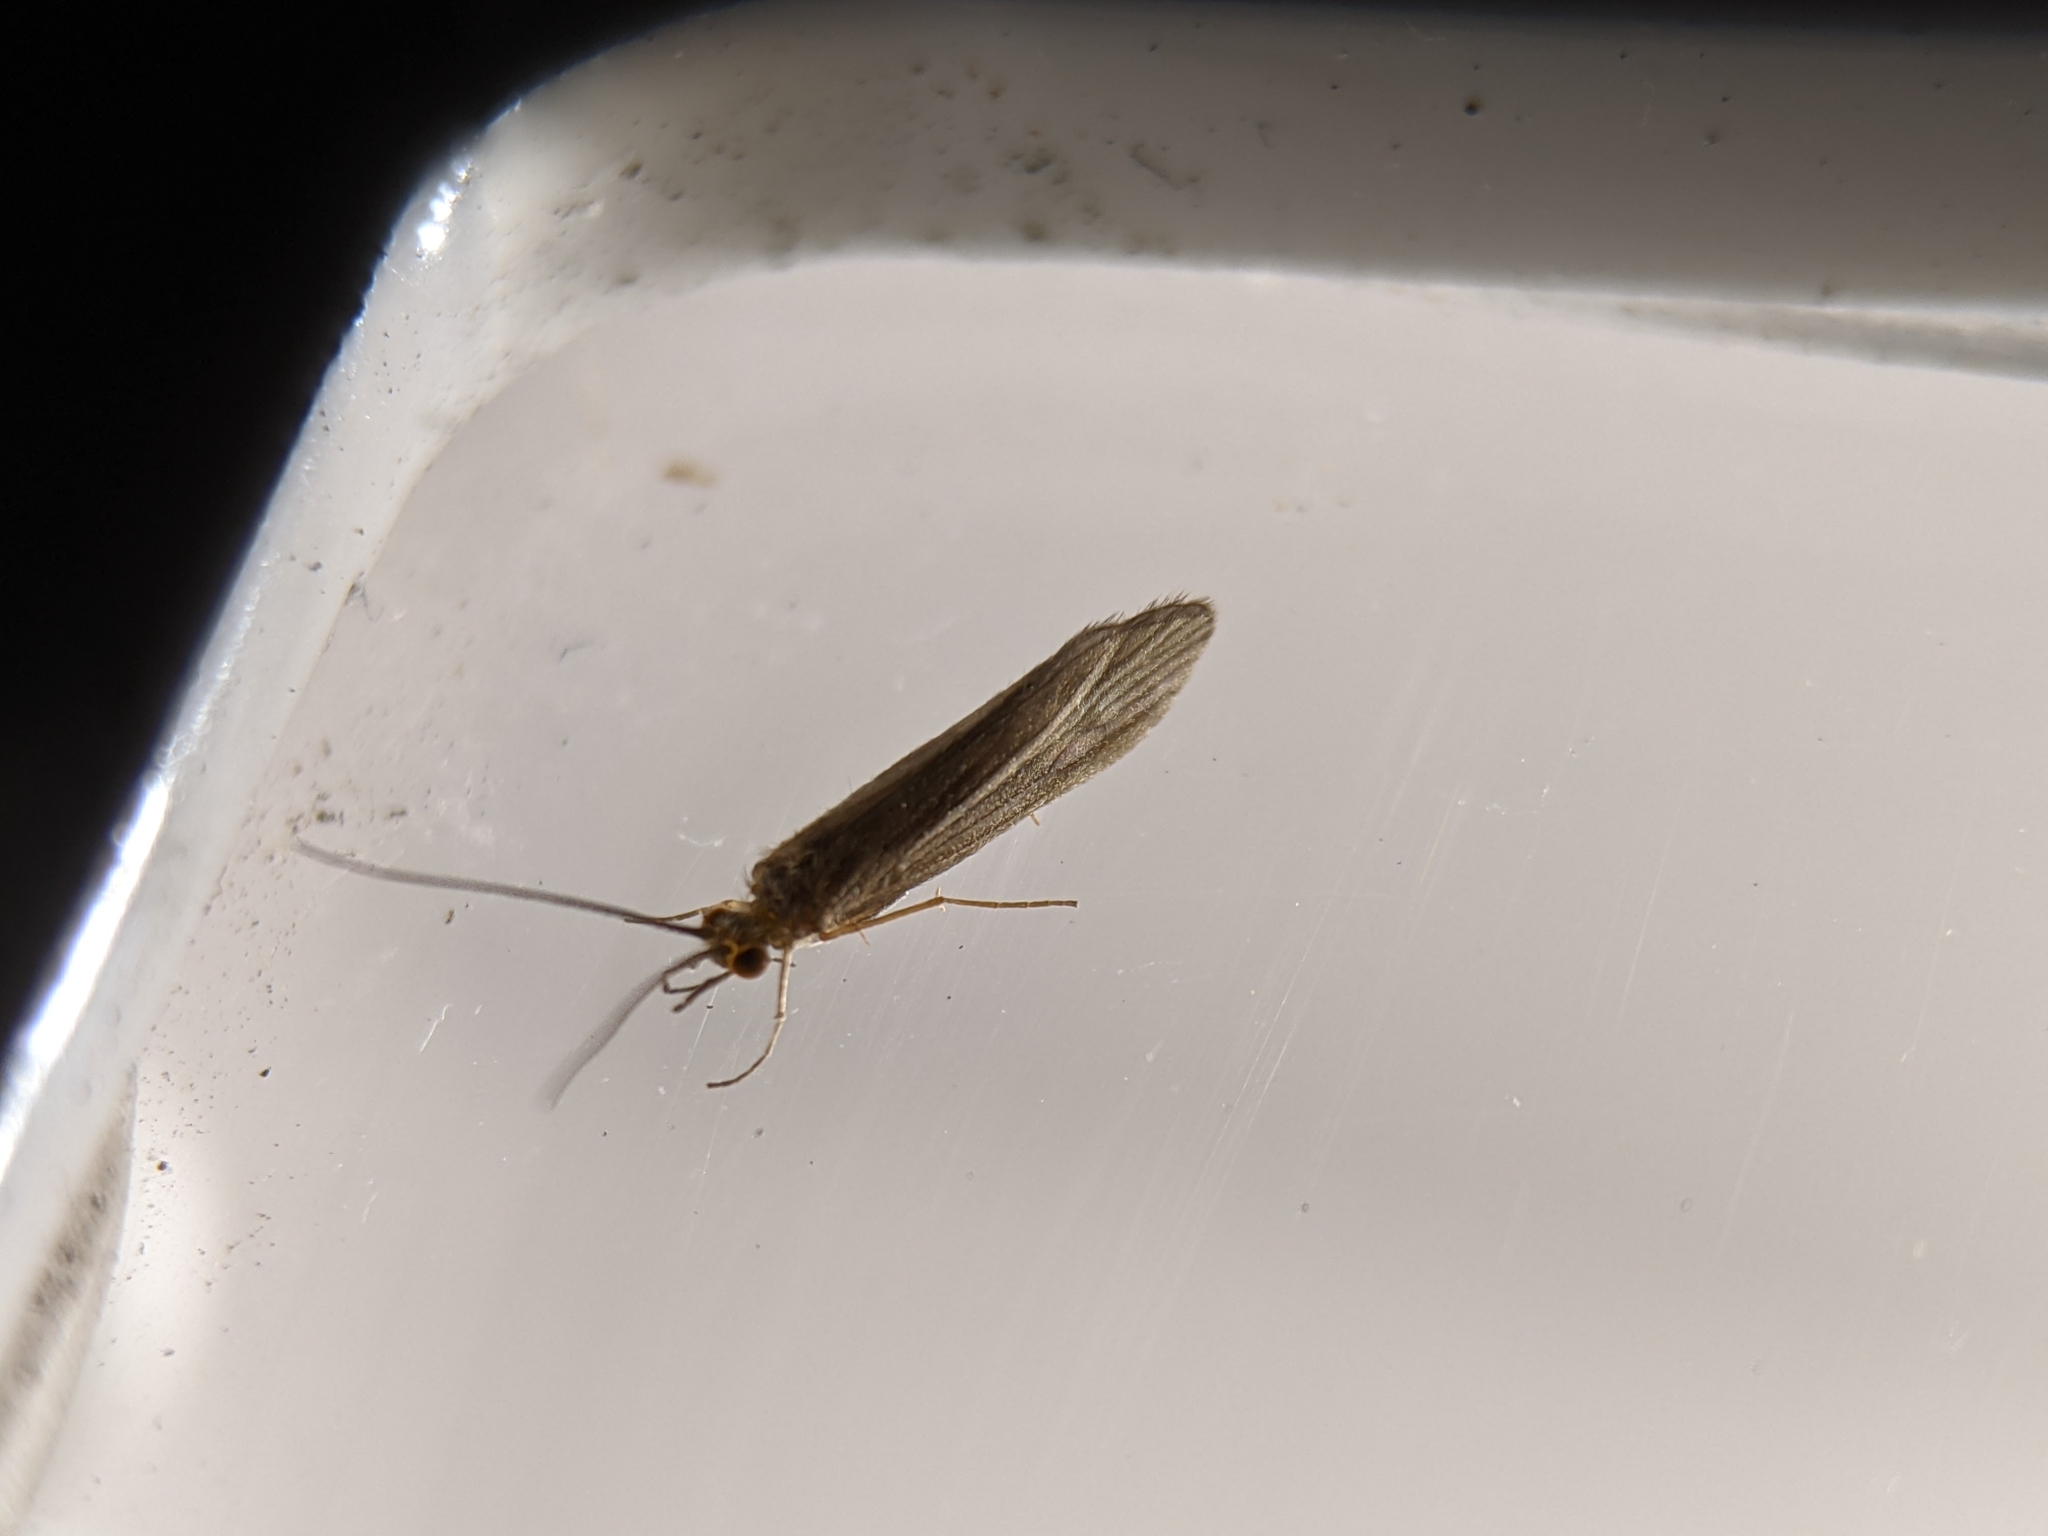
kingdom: Animalia
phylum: Arthropoda
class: Insecta
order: Trichoptera
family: Psychomyiidae
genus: Tinodes
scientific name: Tinodes waeneri
